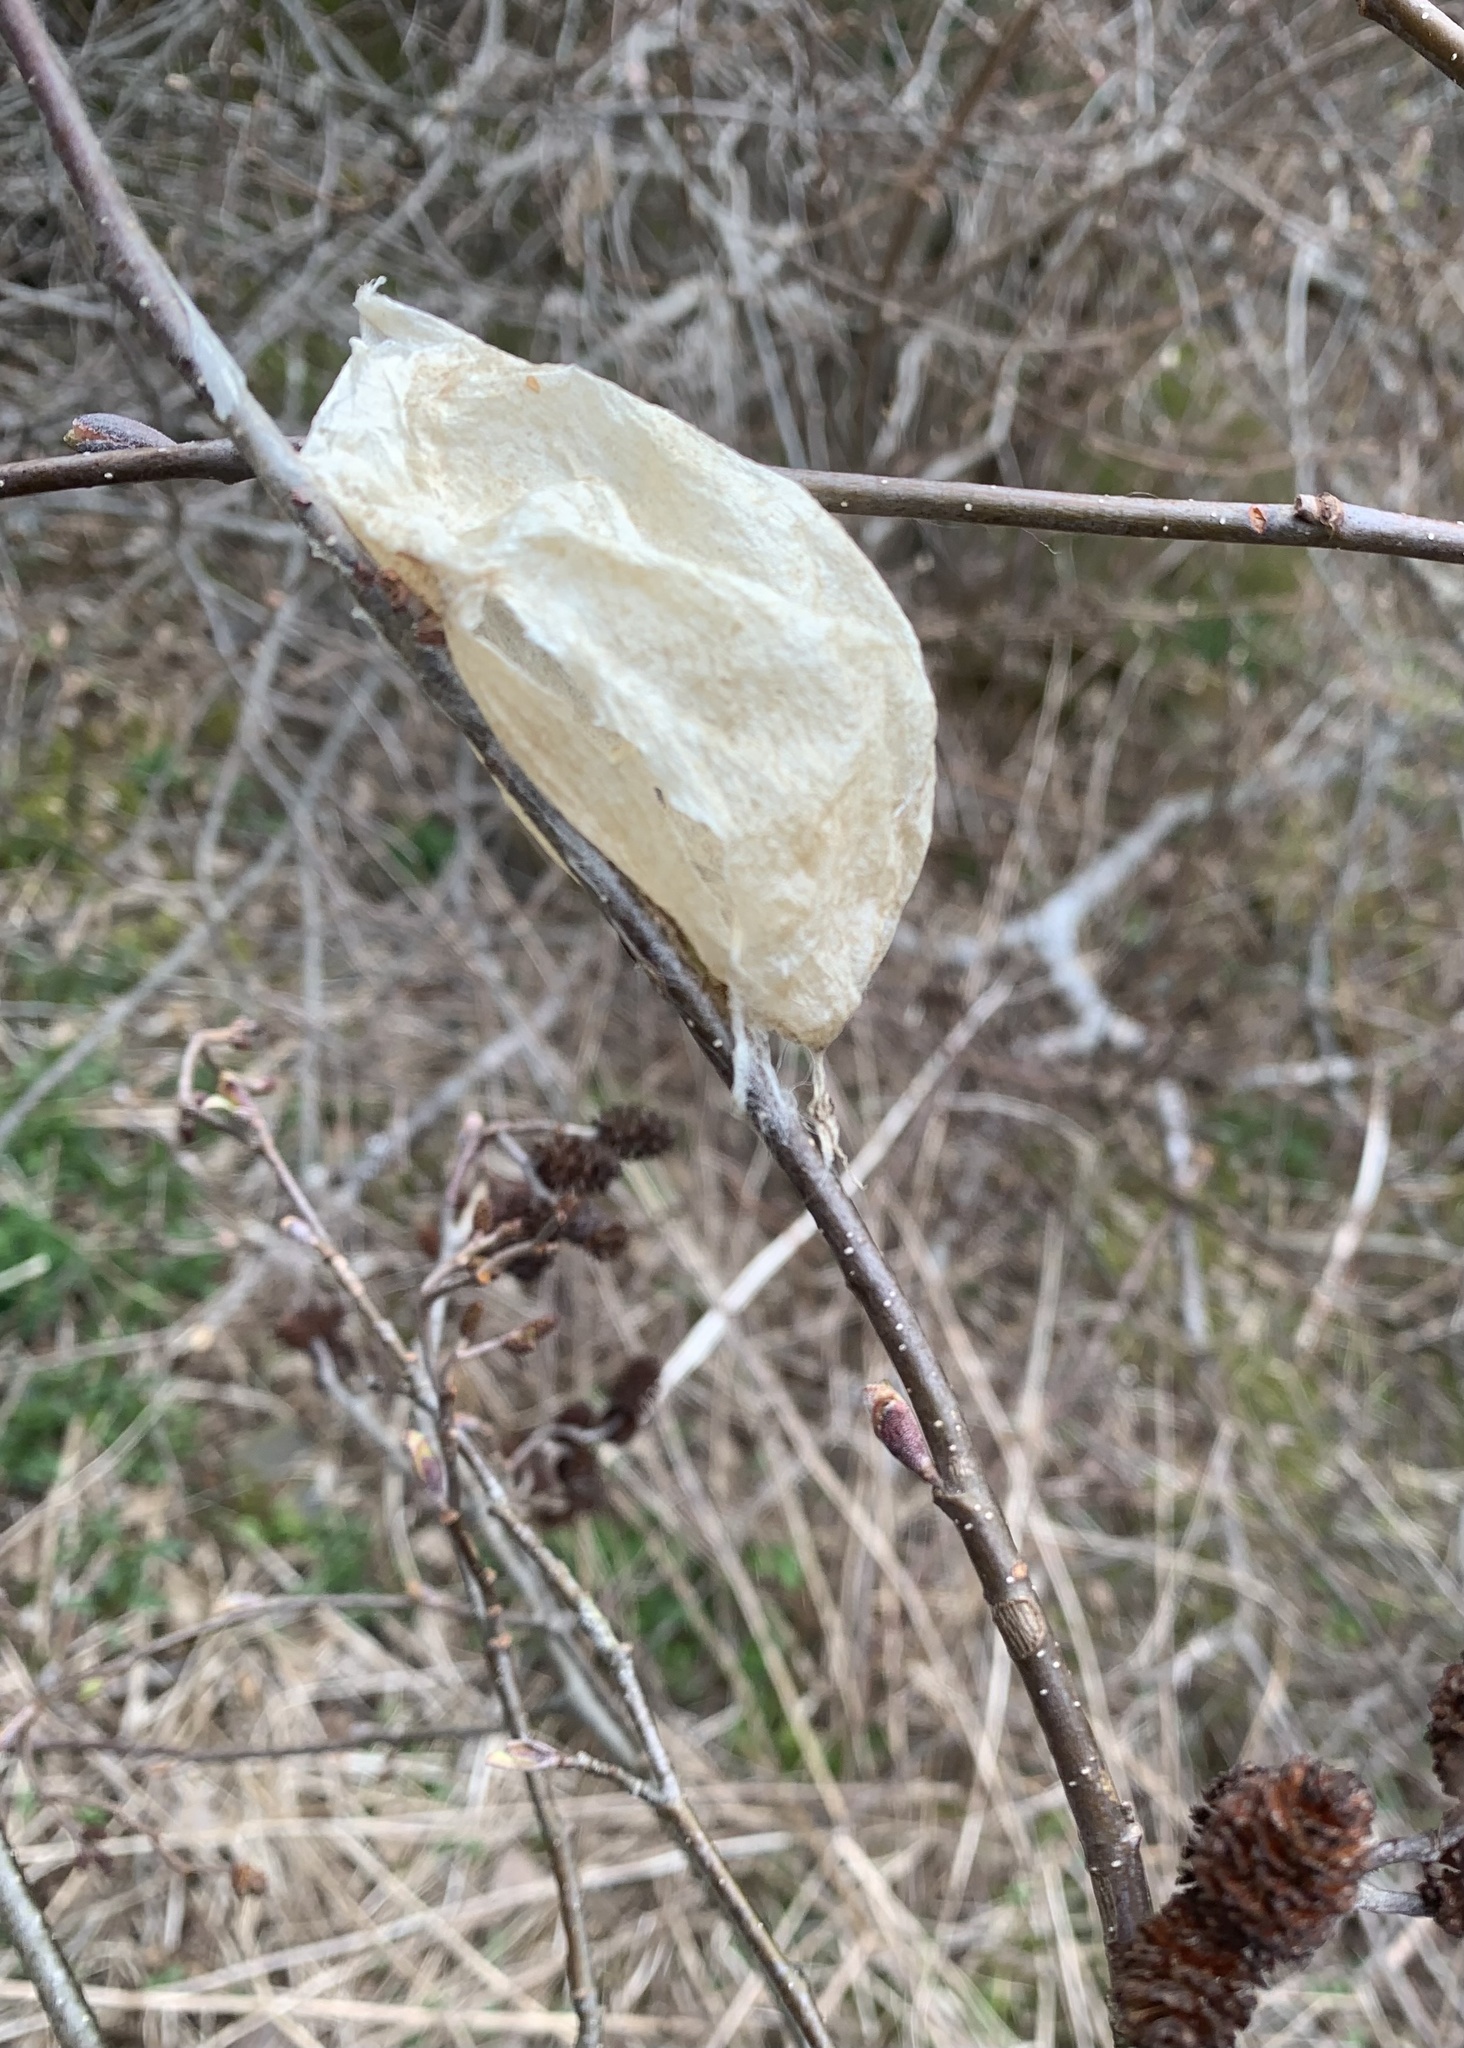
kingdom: Animalia
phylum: Arthropoda
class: Insecta
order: Lepidoptera
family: Saturniidae
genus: Hyalophora
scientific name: Hyalophora cecropia
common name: Cecropia silkmoth
